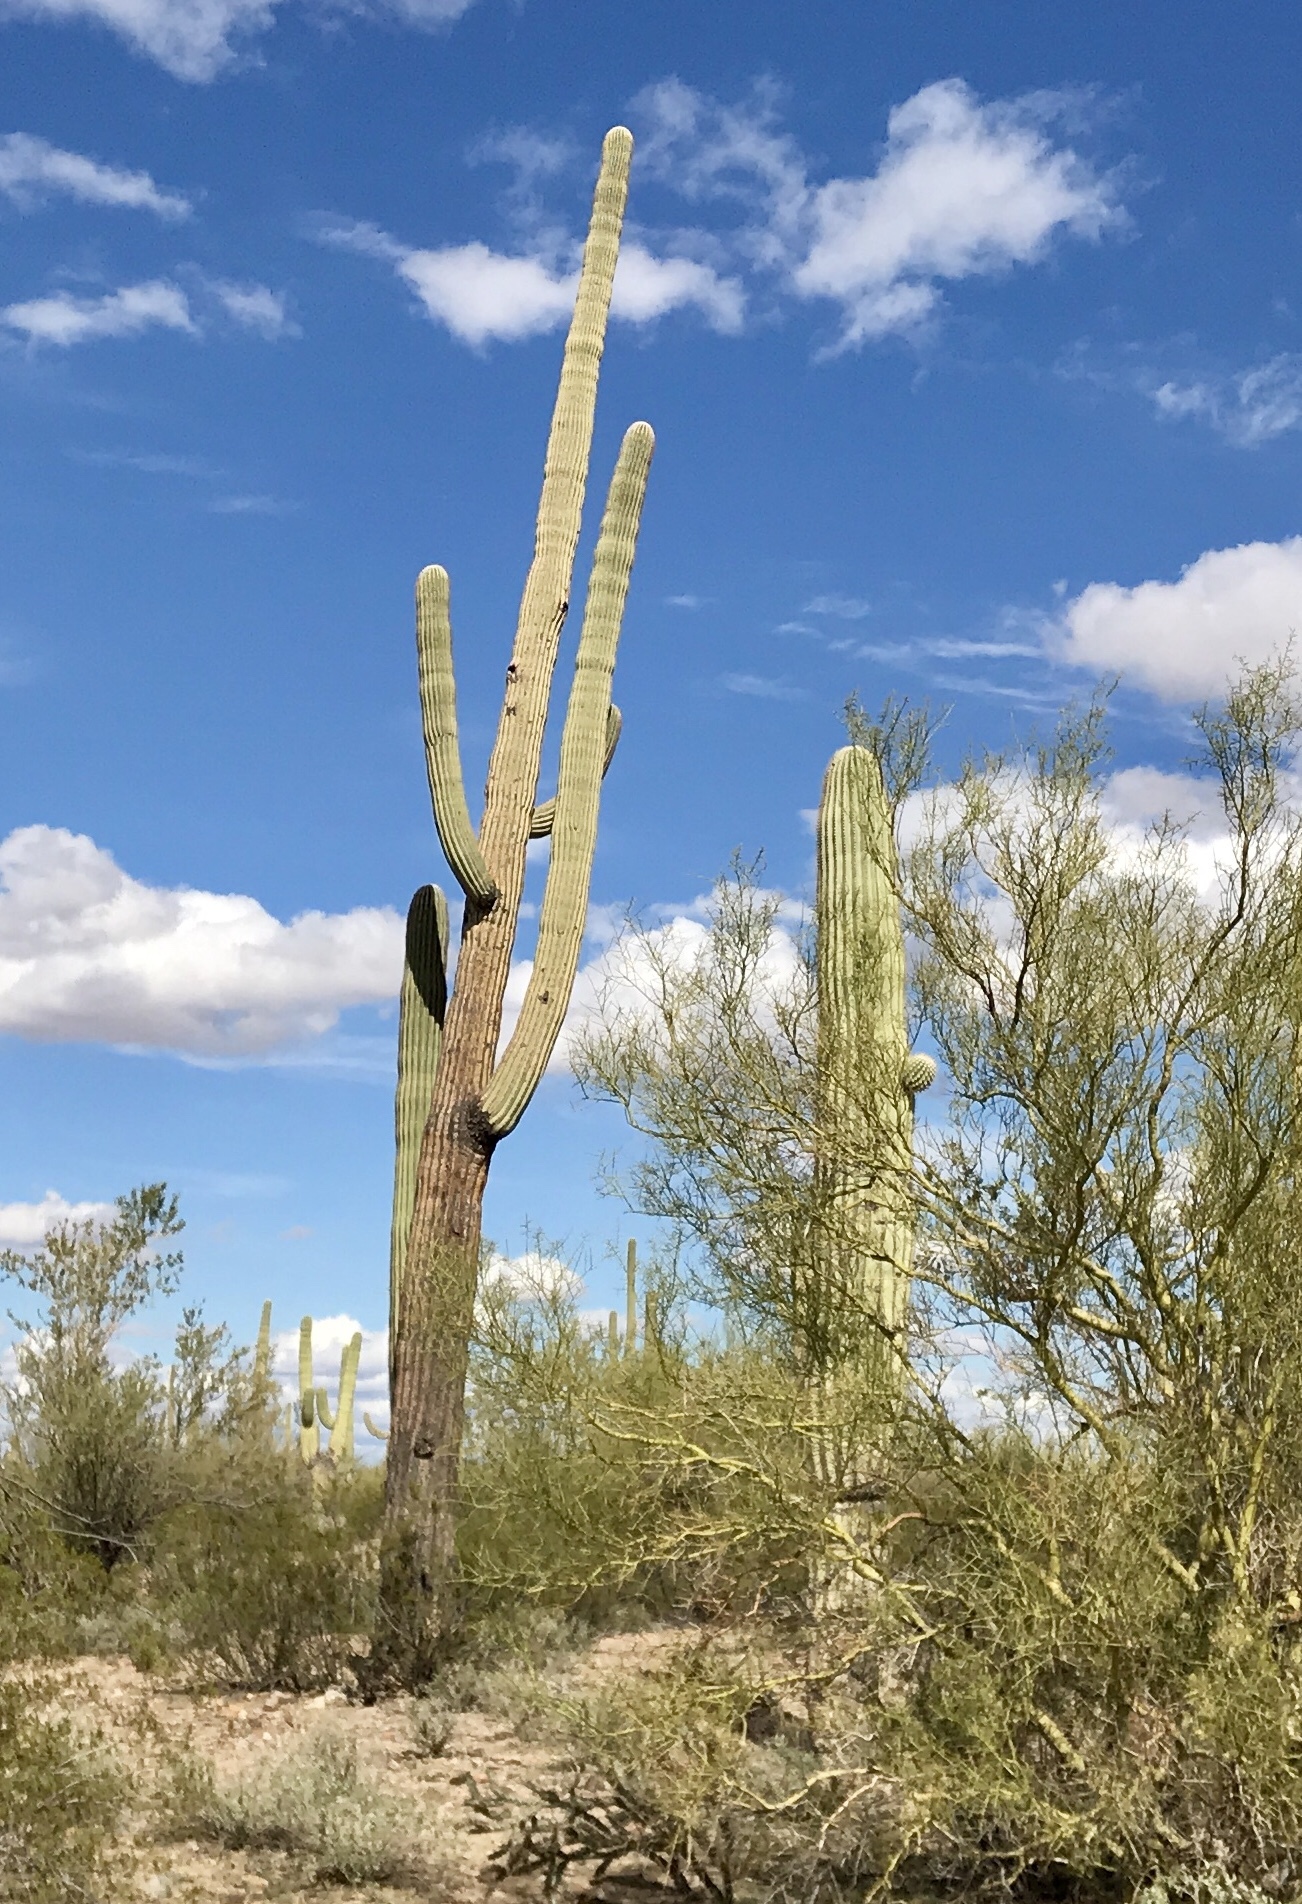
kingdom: Plantae
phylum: Tracheophyta
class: Magnoliopsida
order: Caryophyllales
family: Cactaceae
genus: Carnegiea
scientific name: Carnegiea gigantea
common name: Saguaro
